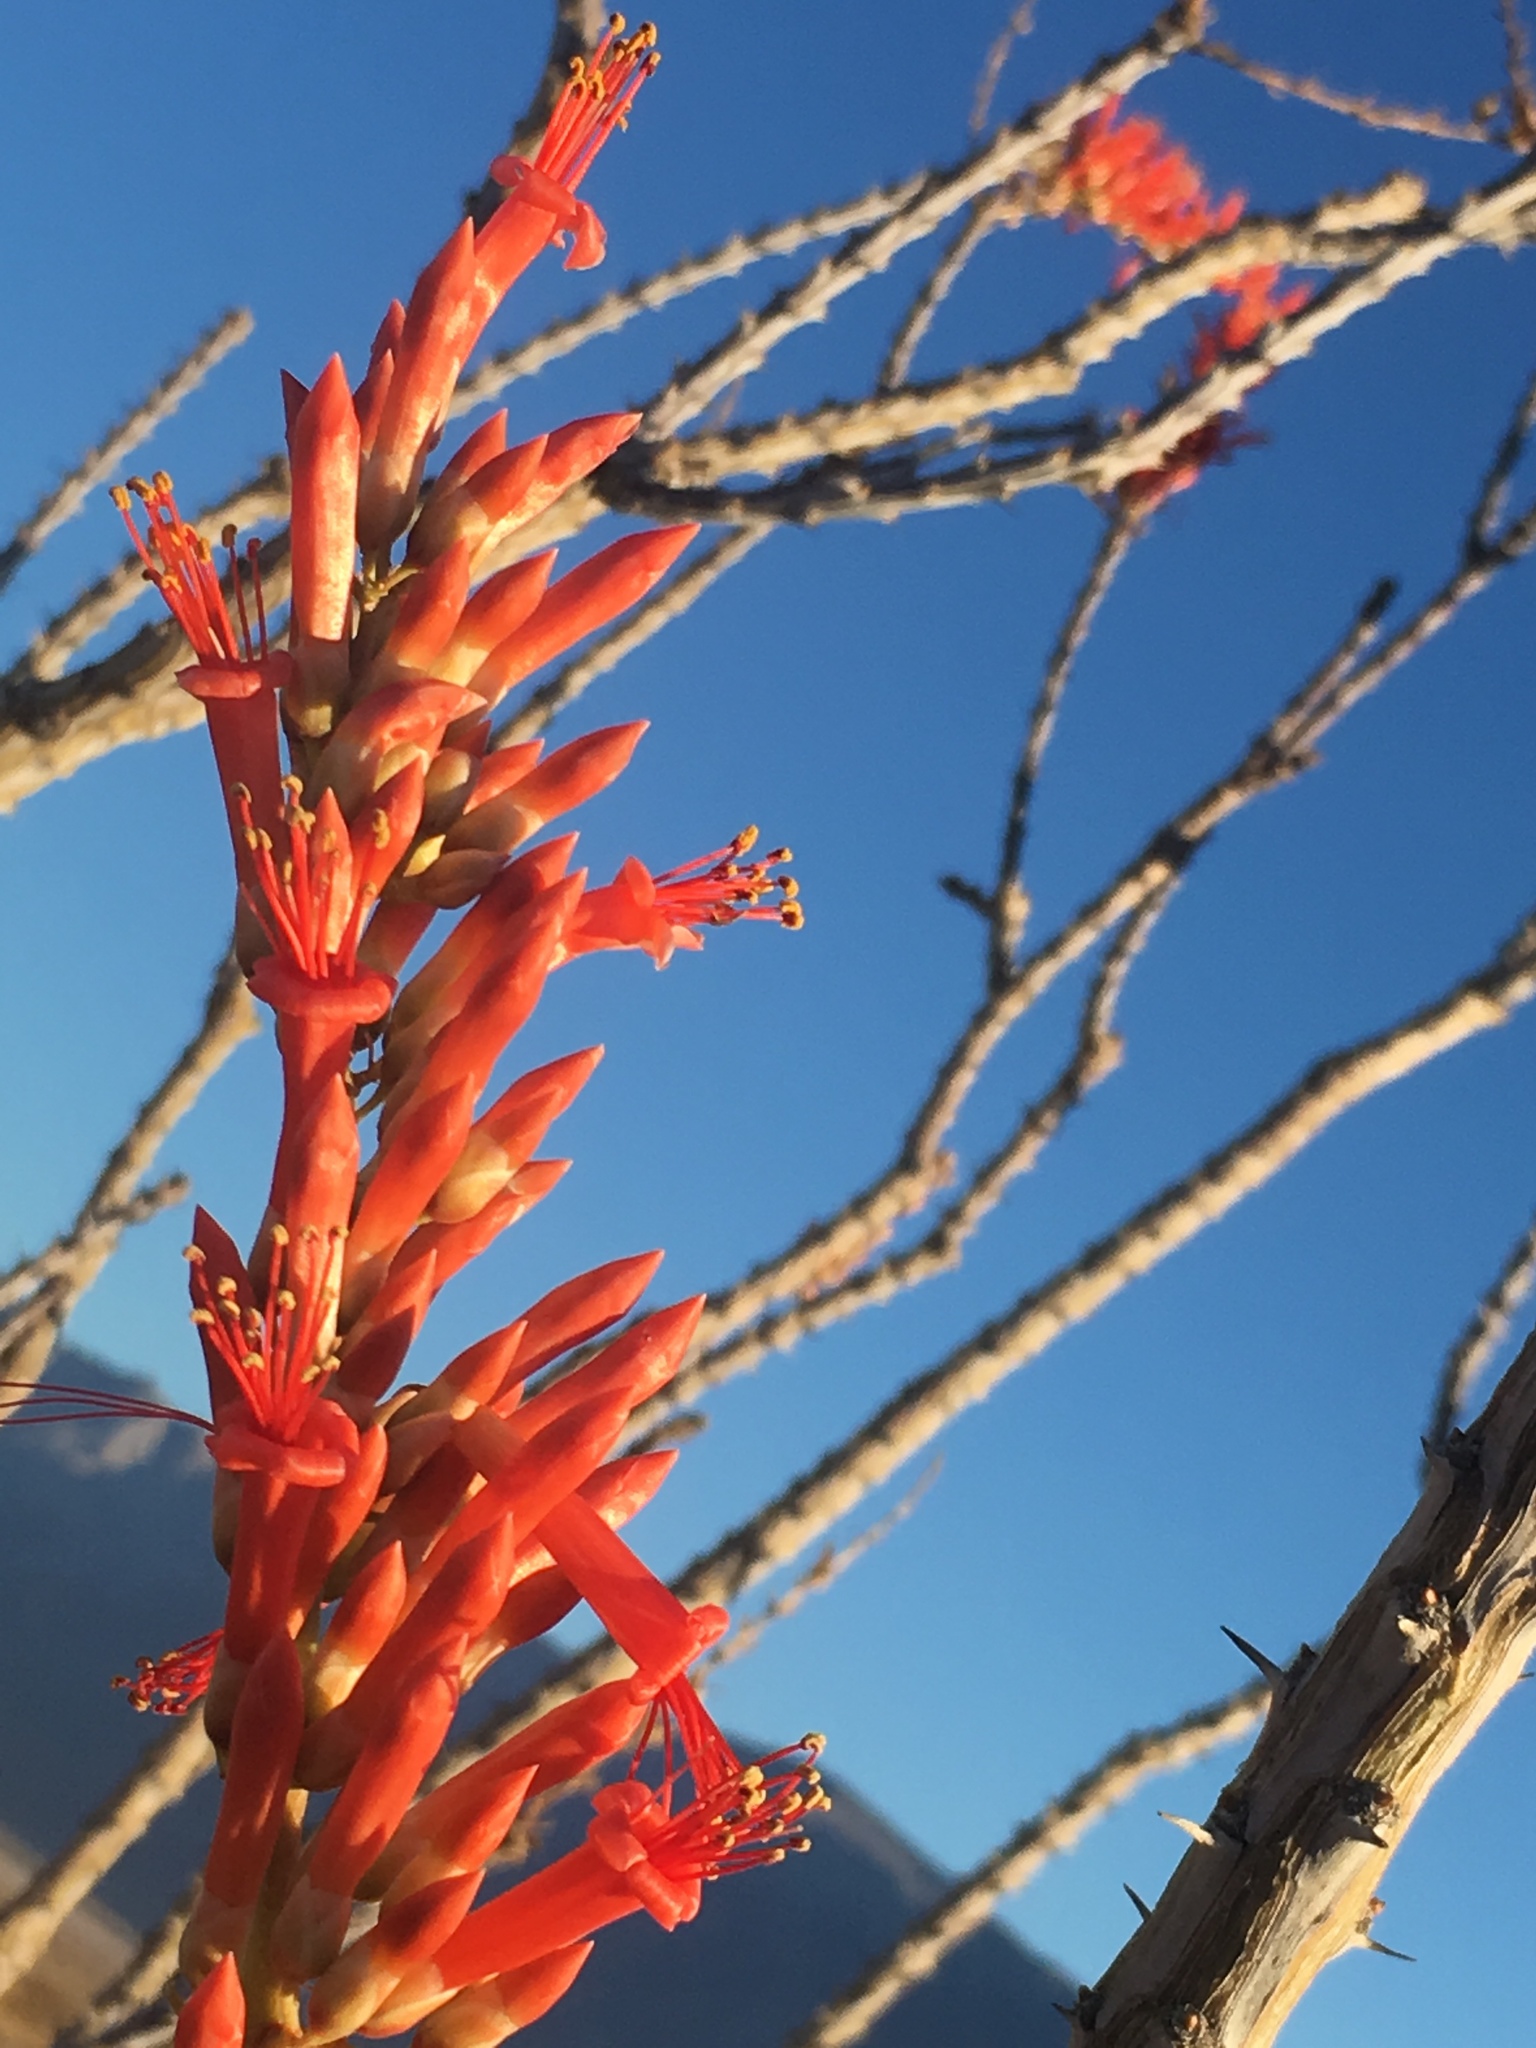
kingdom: Plantae
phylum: Tracheophyta
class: Magnoliopsida
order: Ericales
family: Fouquieriaceae
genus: Fouquieria
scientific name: Fouquieria splendens
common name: Vine-cactus
